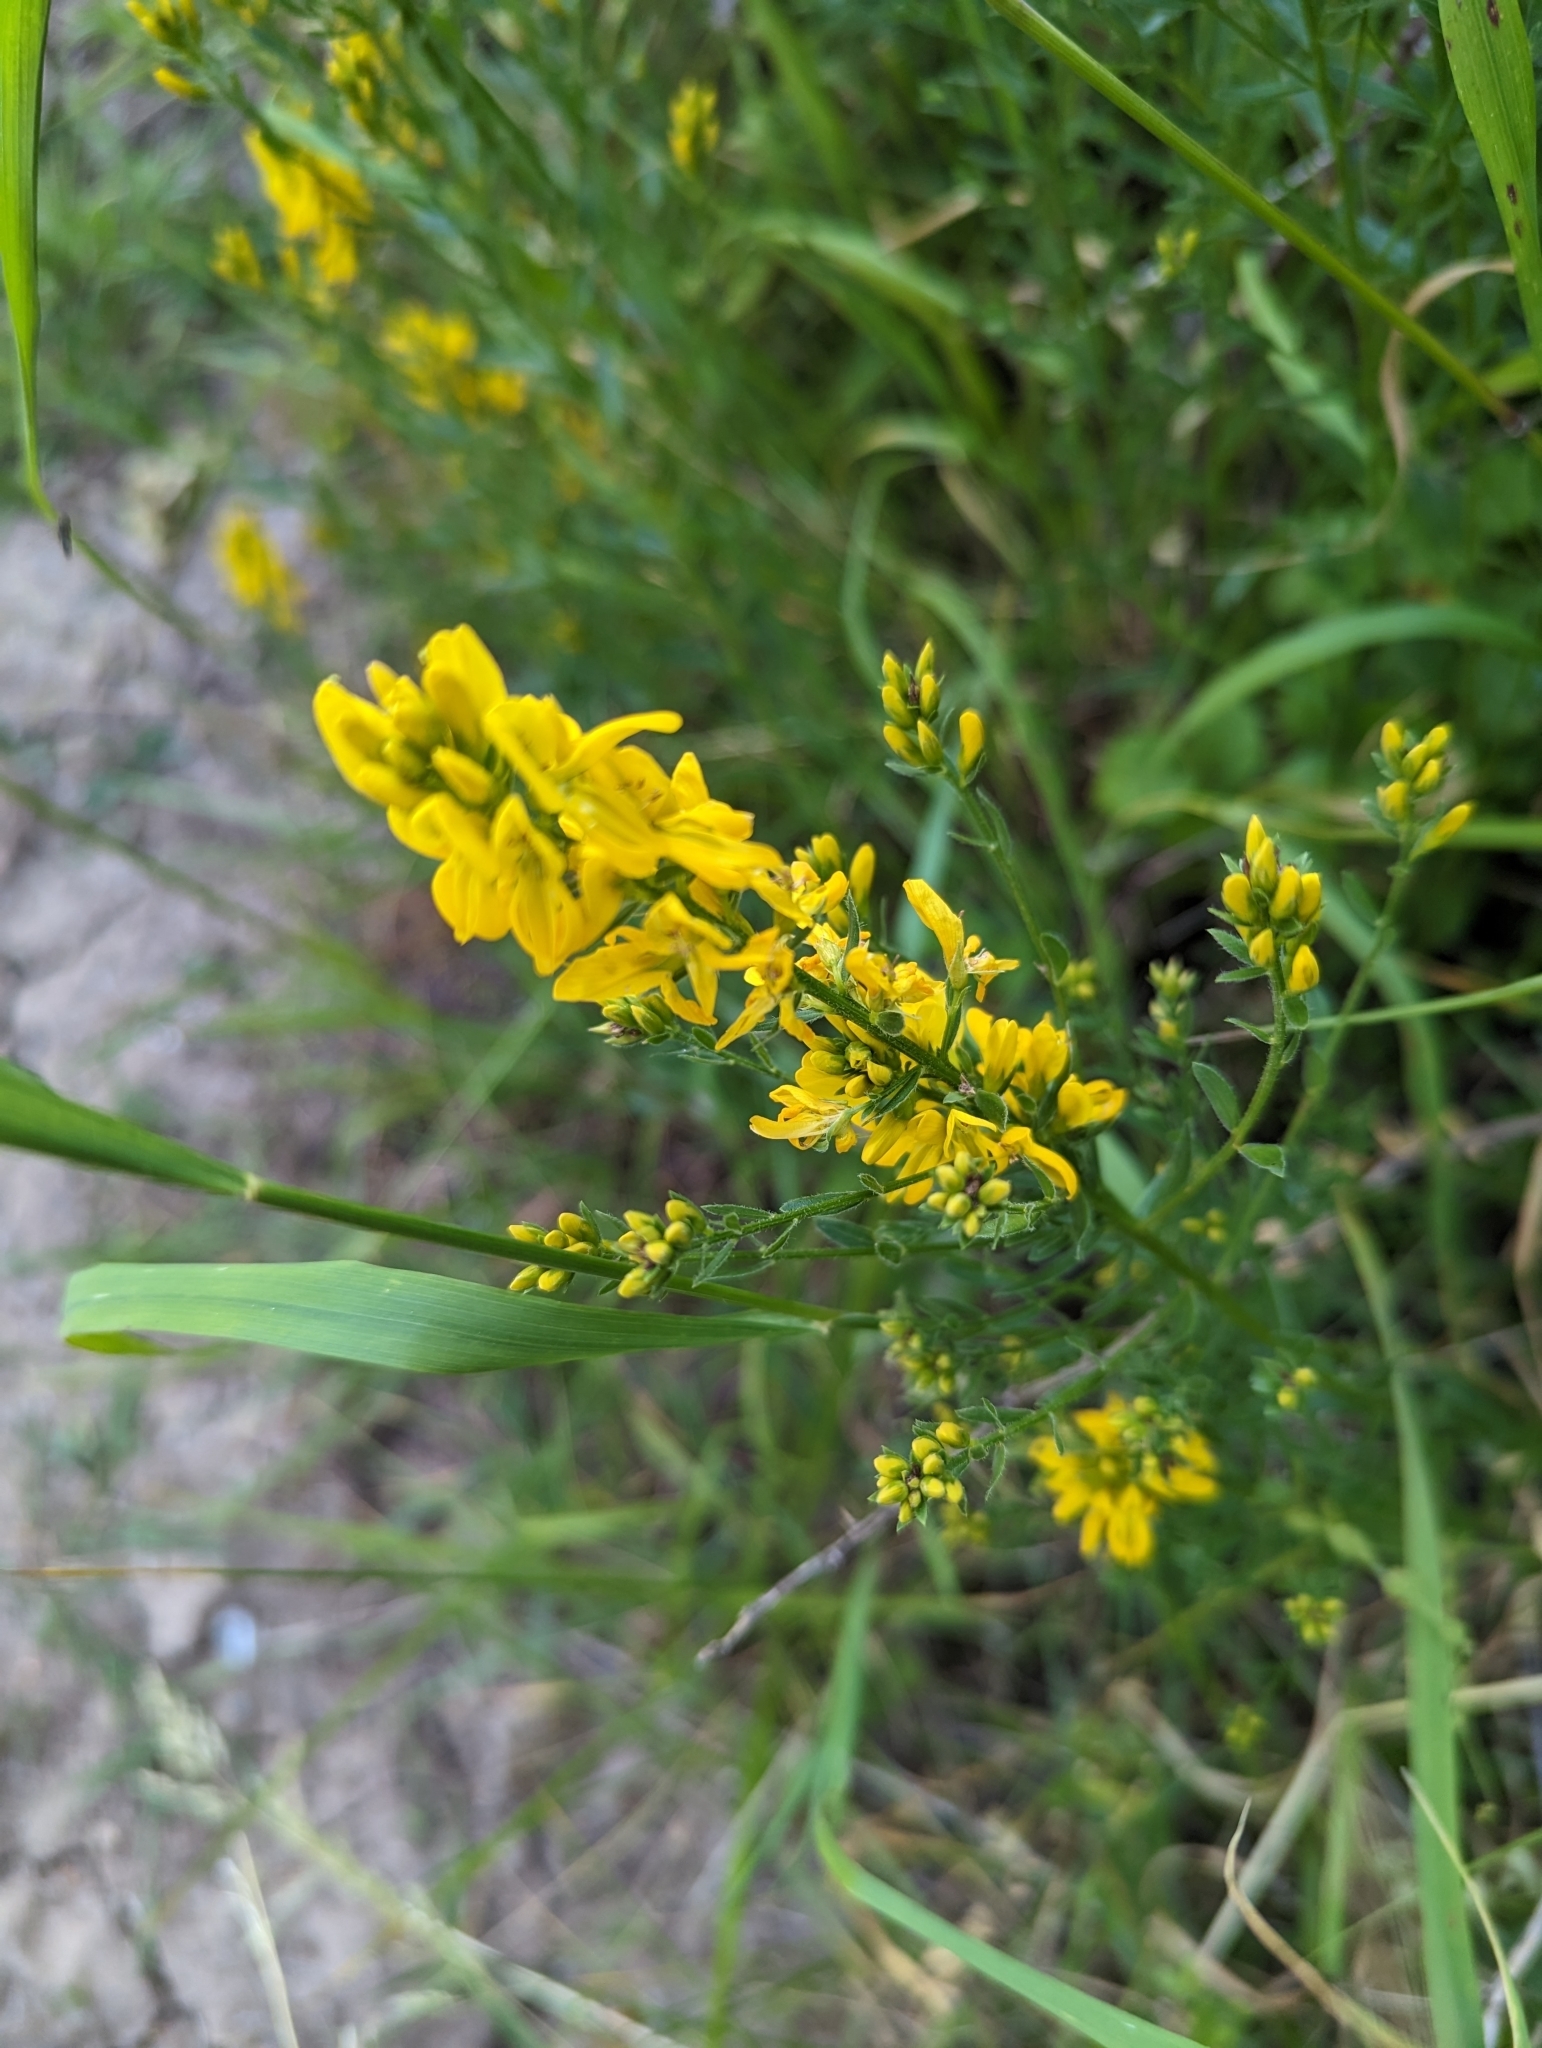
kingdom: Plantae
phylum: Tracheophyta
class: Magnoliopsida
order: Fabales
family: Fabaceae
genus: Genista
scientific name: Genista tinctoria
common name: Dyer's greenweed
